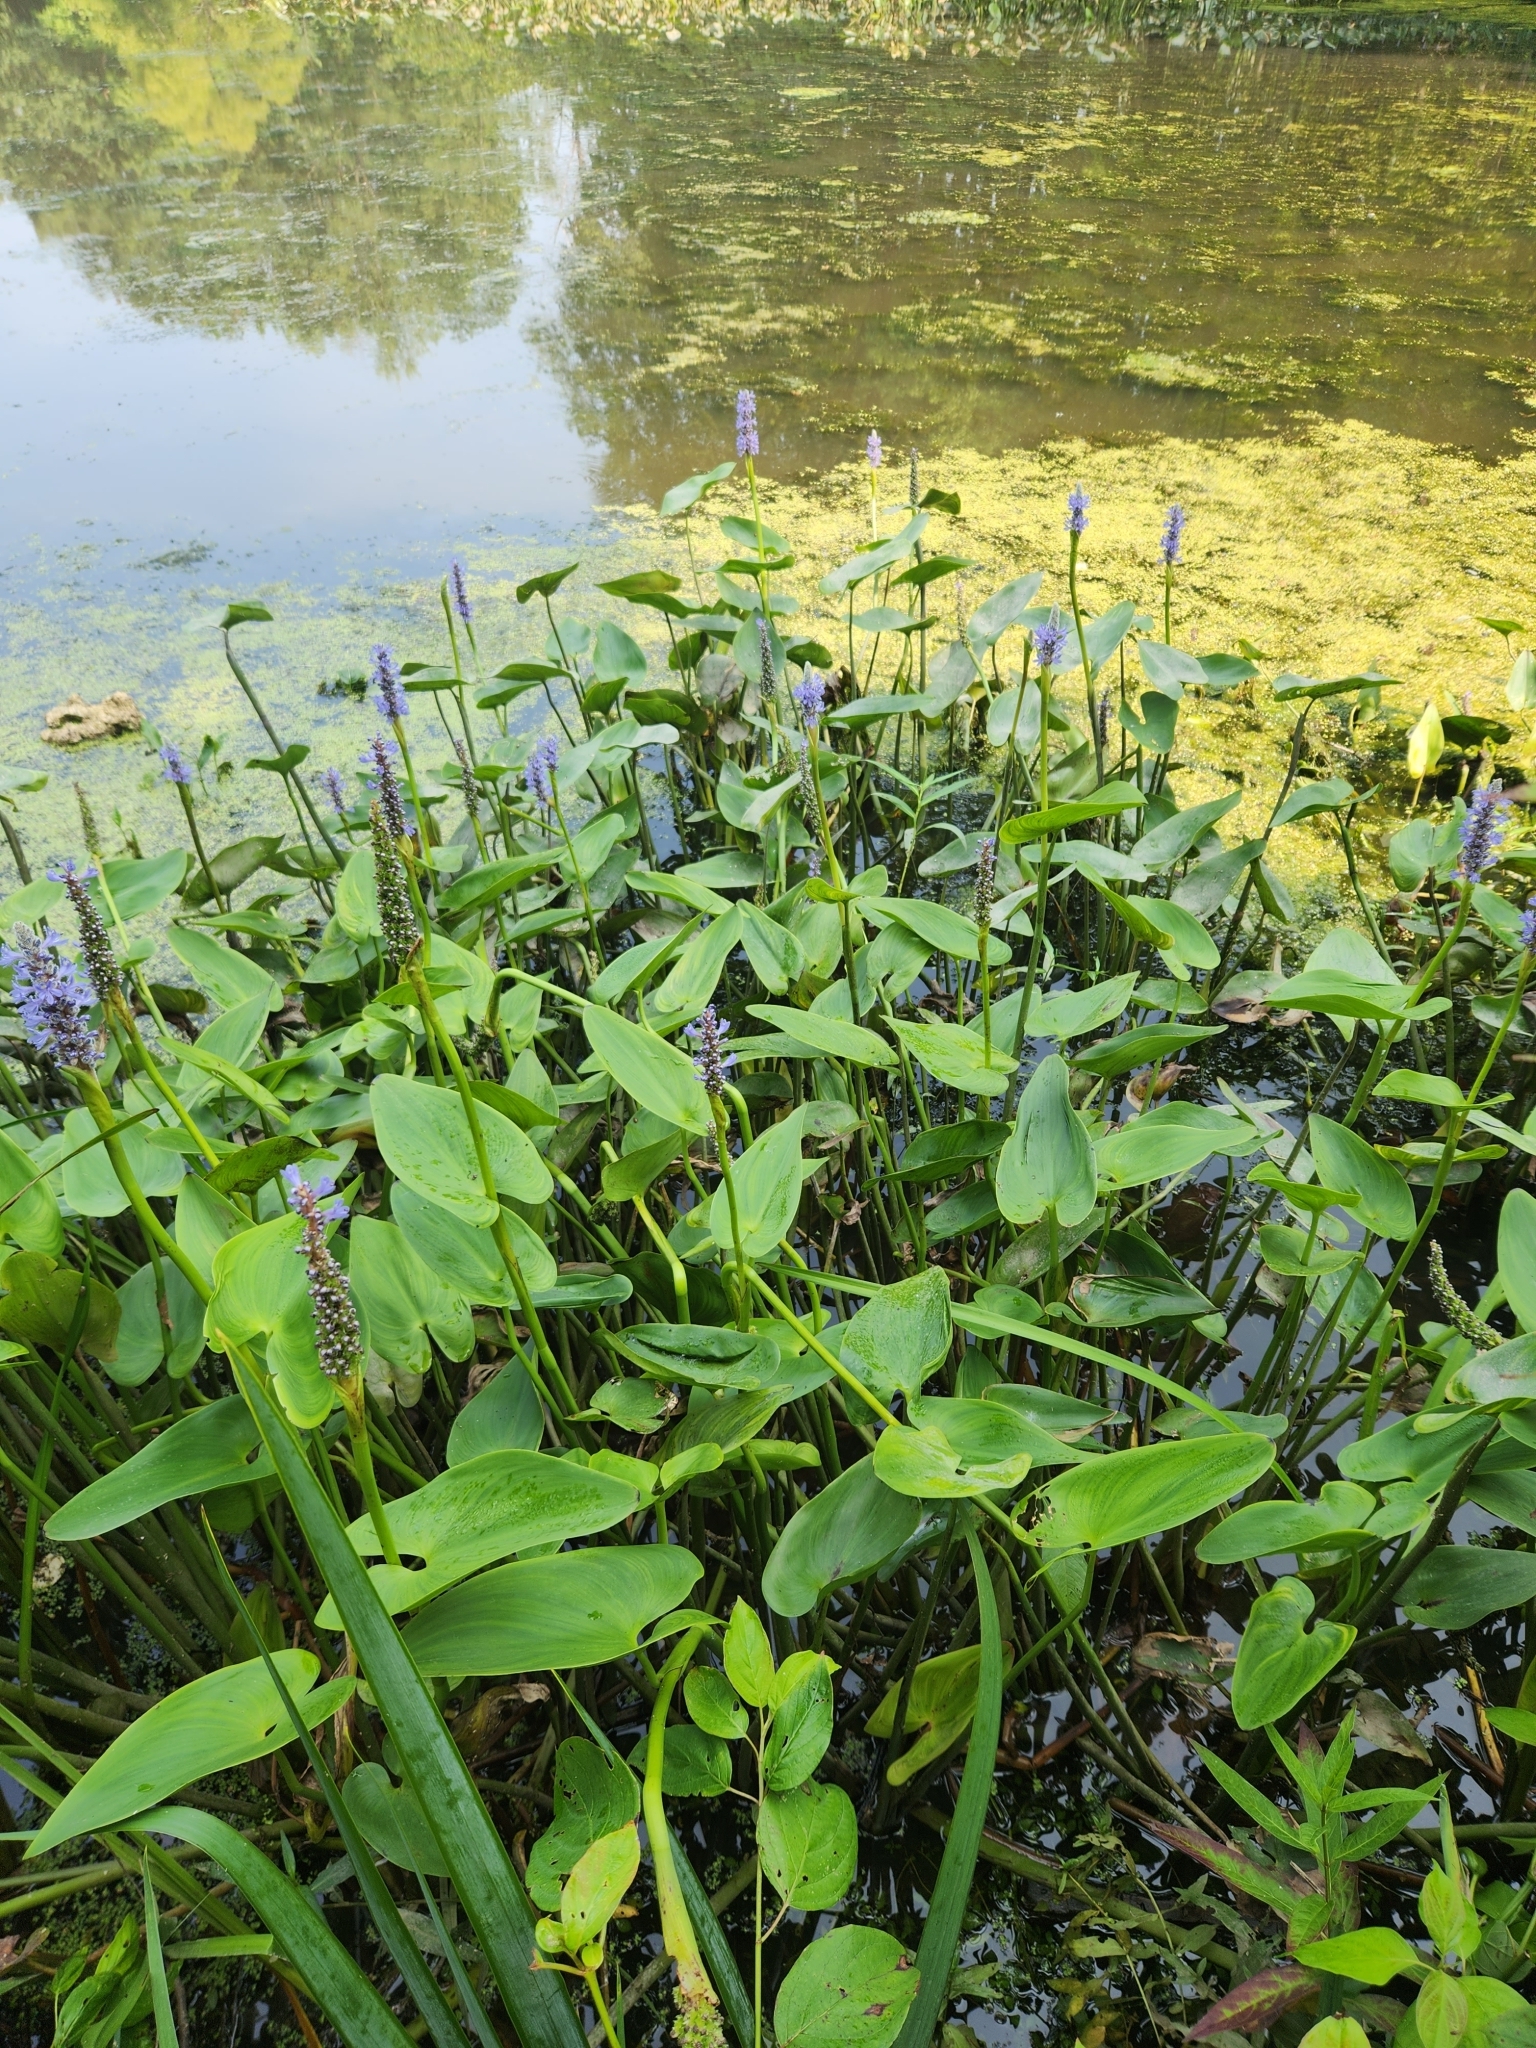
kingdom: Plantae
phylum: Tracheophyta
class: Liliopsida
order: Commelinales
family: Pontederiaceae
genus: Pontederia
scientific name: Pontederia cordata
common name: Pickerelweed
